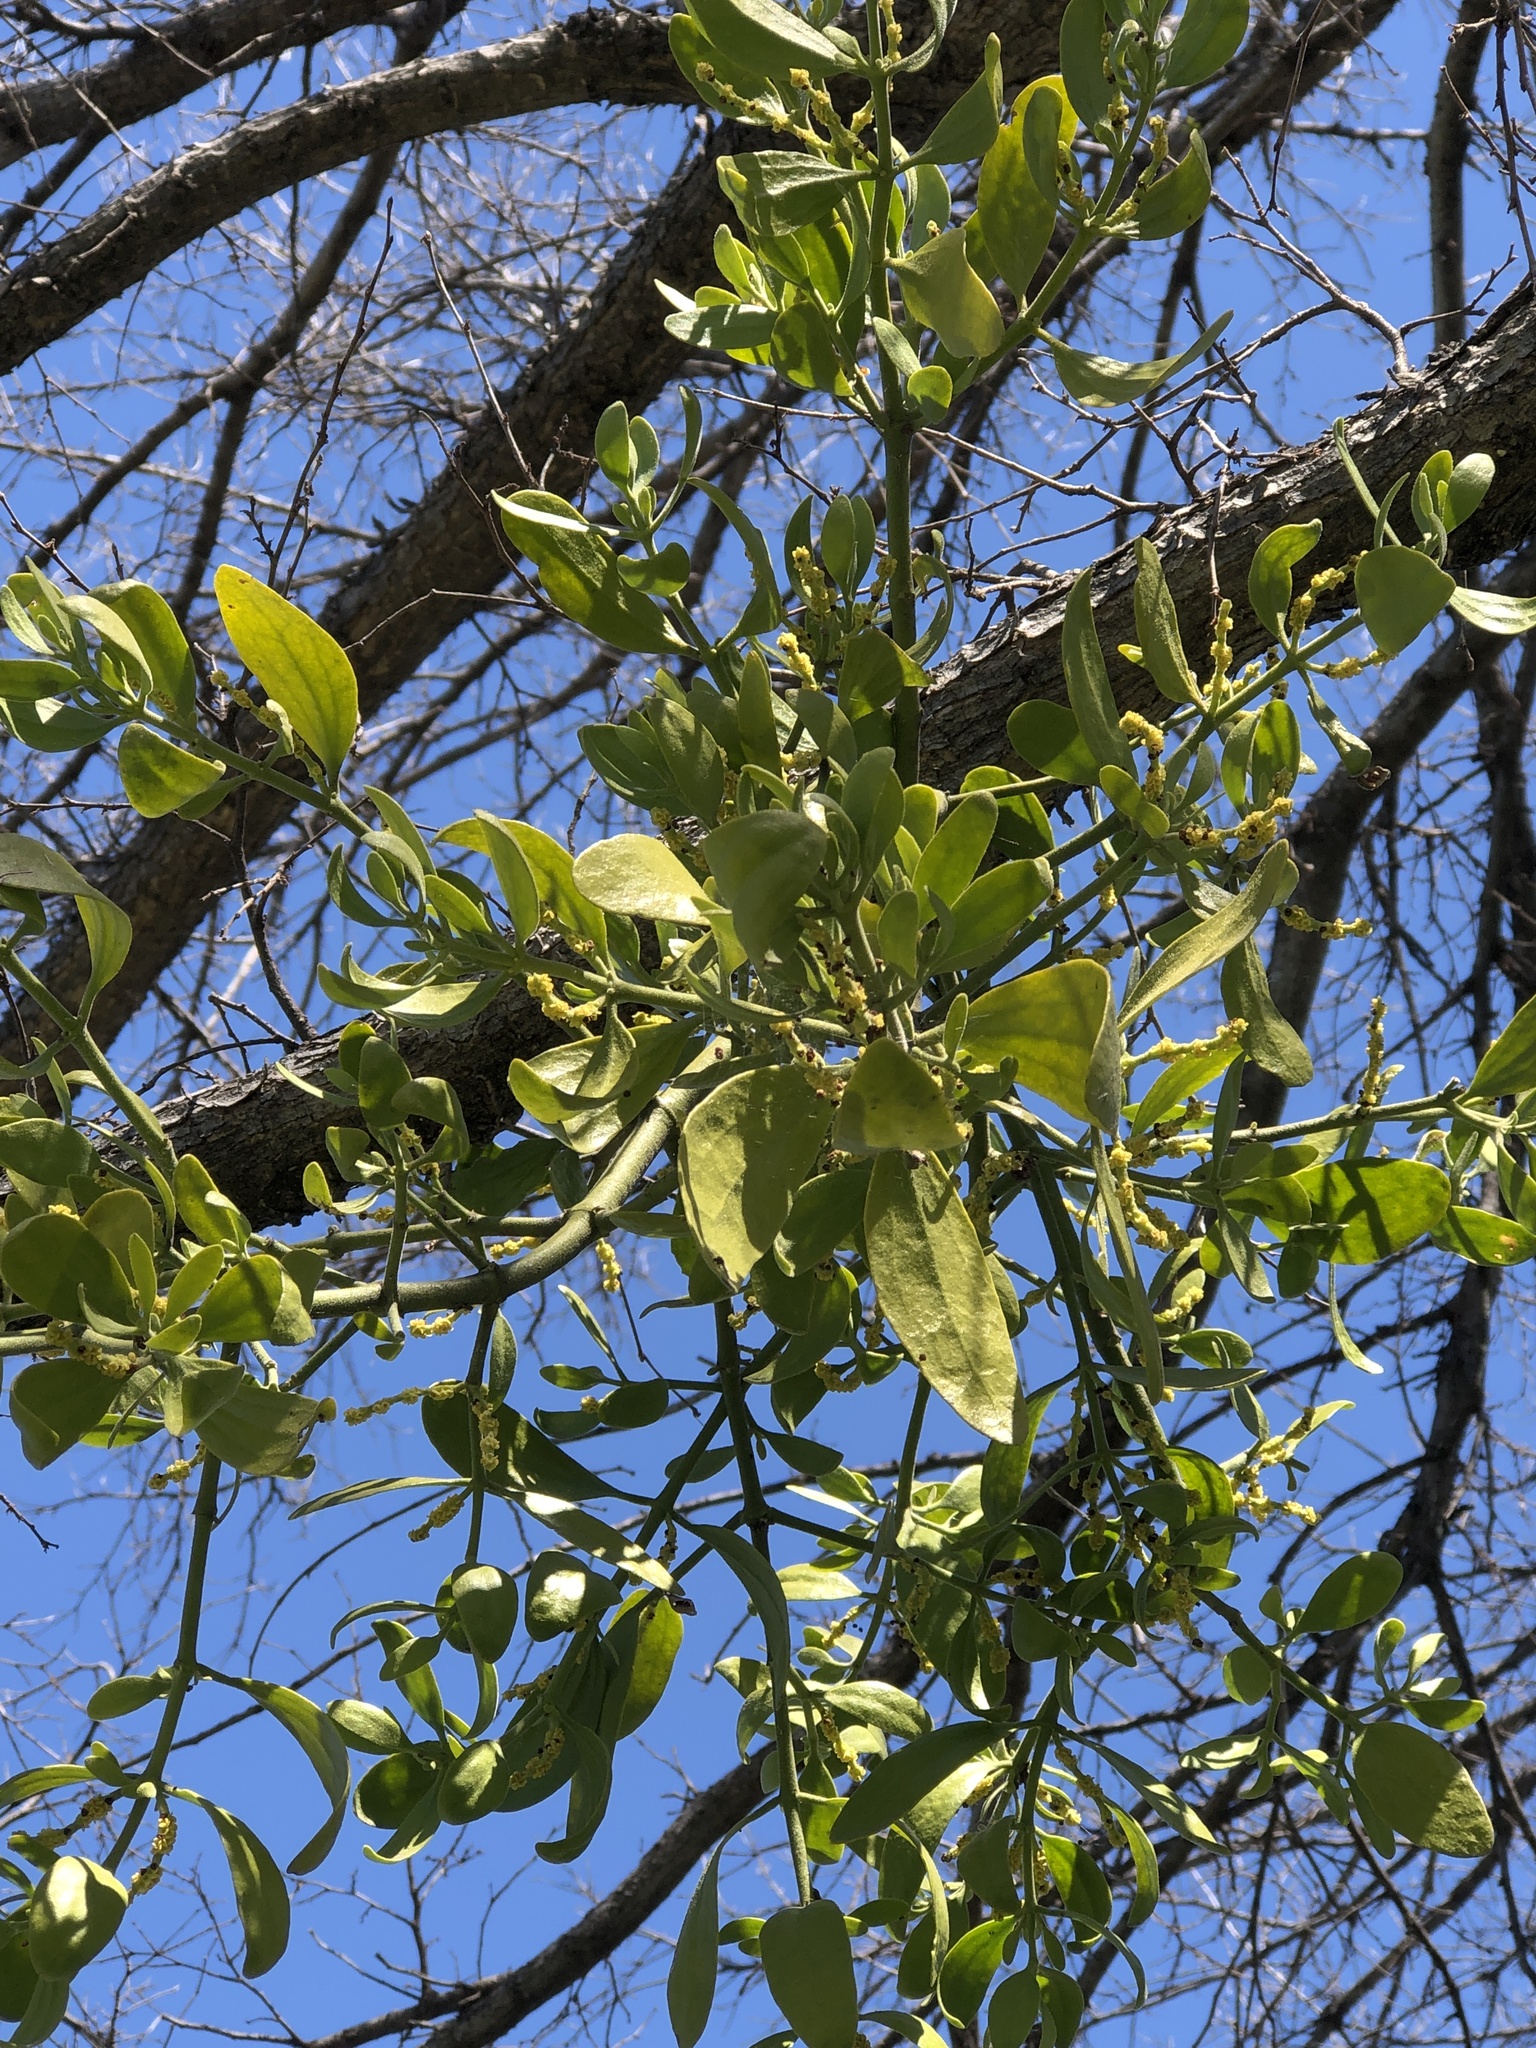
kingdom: Plantae
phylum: Tracheophyta
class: Magnoliopsida
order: Santalales
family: Viscaceae
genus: Phoradendron
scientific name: Phoradendron leucarpum
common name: Pacific mistletoe
